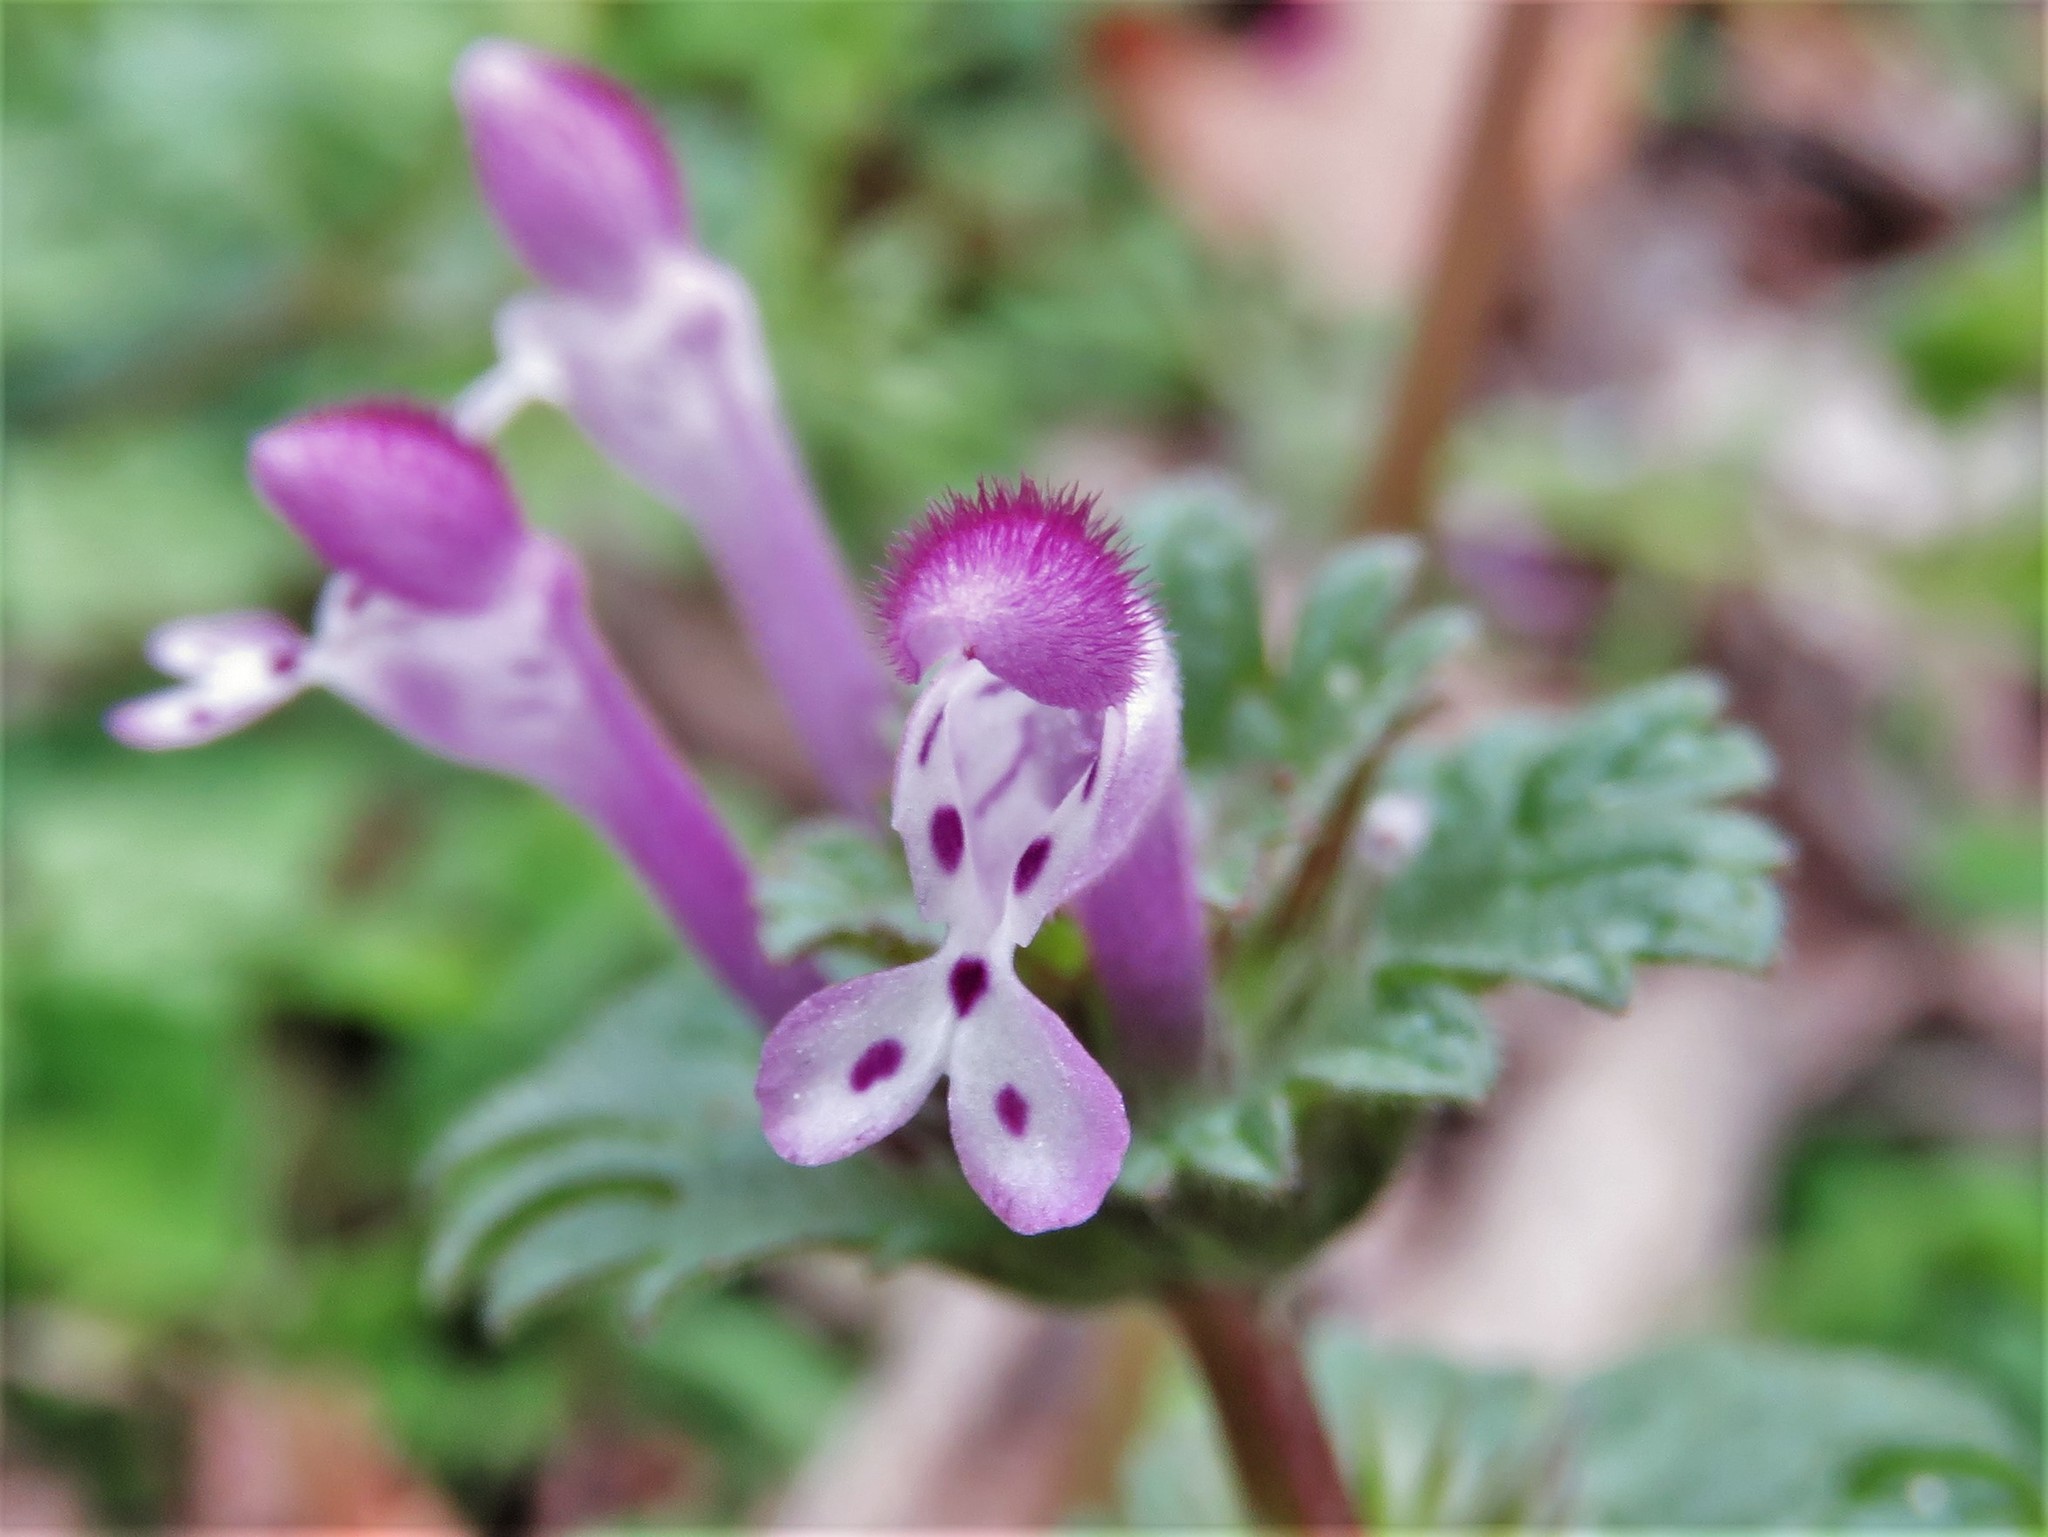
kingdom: Plantae
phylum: Tracheophyta
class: Magnoliopsida
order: Lamiales
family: Lamiaceae
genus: Lamium
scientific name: Lamium amplexicaule
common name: Henbit dead-nettle
